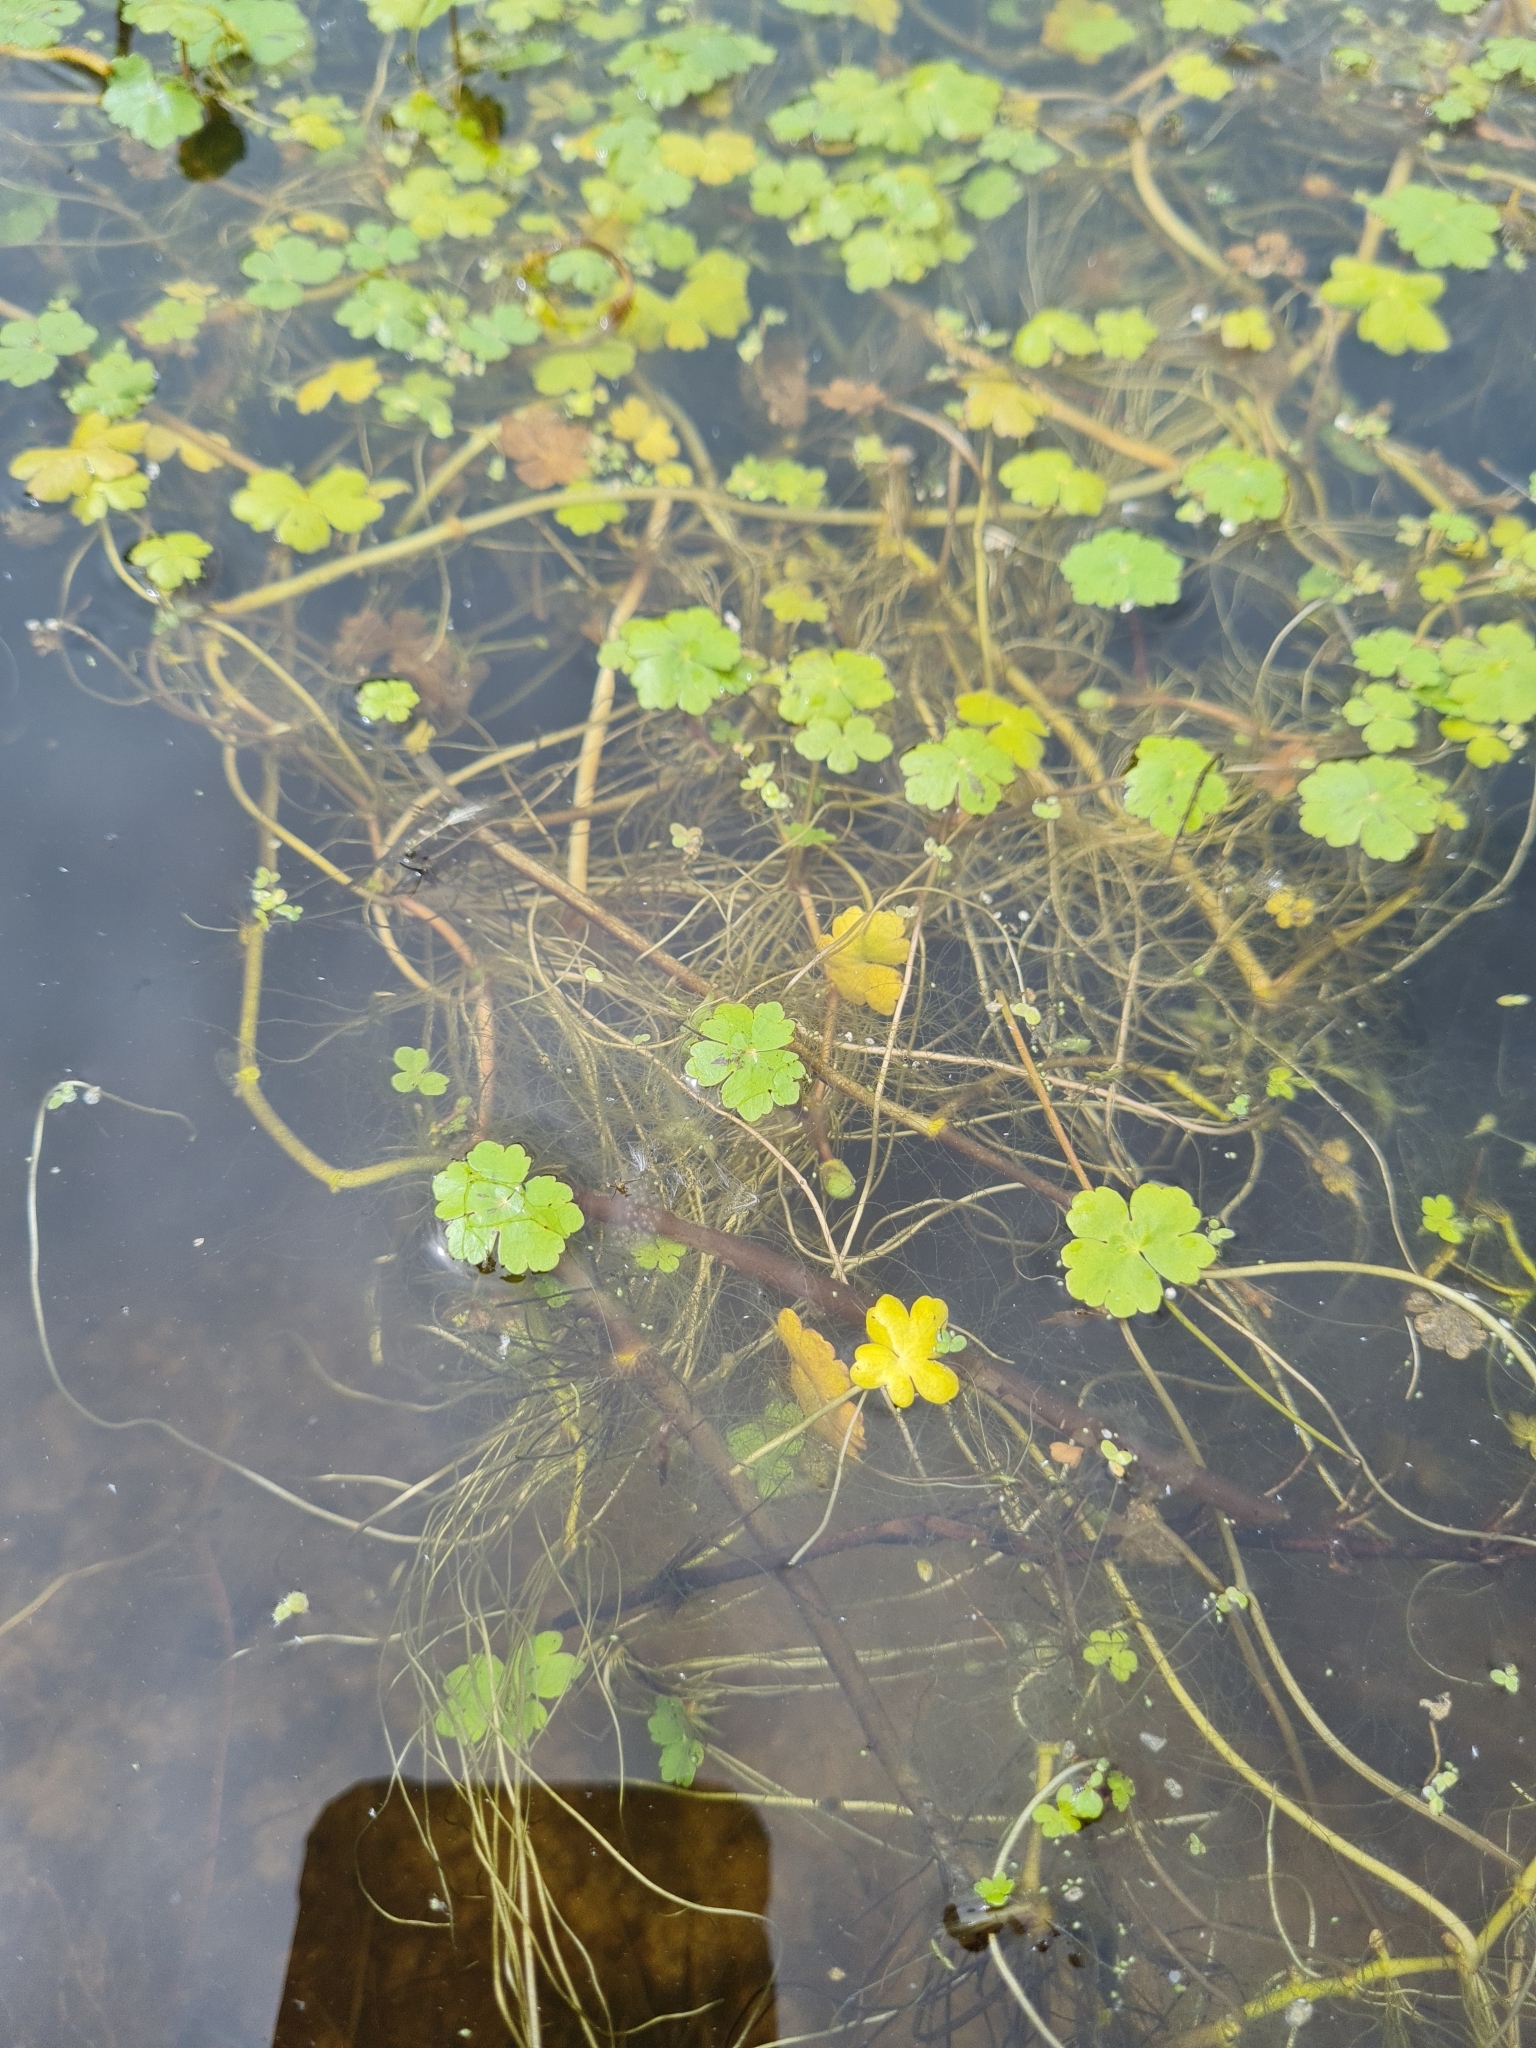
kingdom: Plantae
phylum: Tracheophyta
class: Magnoliopsida
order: Apiales
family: Araliaceae
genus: Hydrocotyle
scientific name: Hydrocotyle ranunculoides
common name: Floating pennywort
